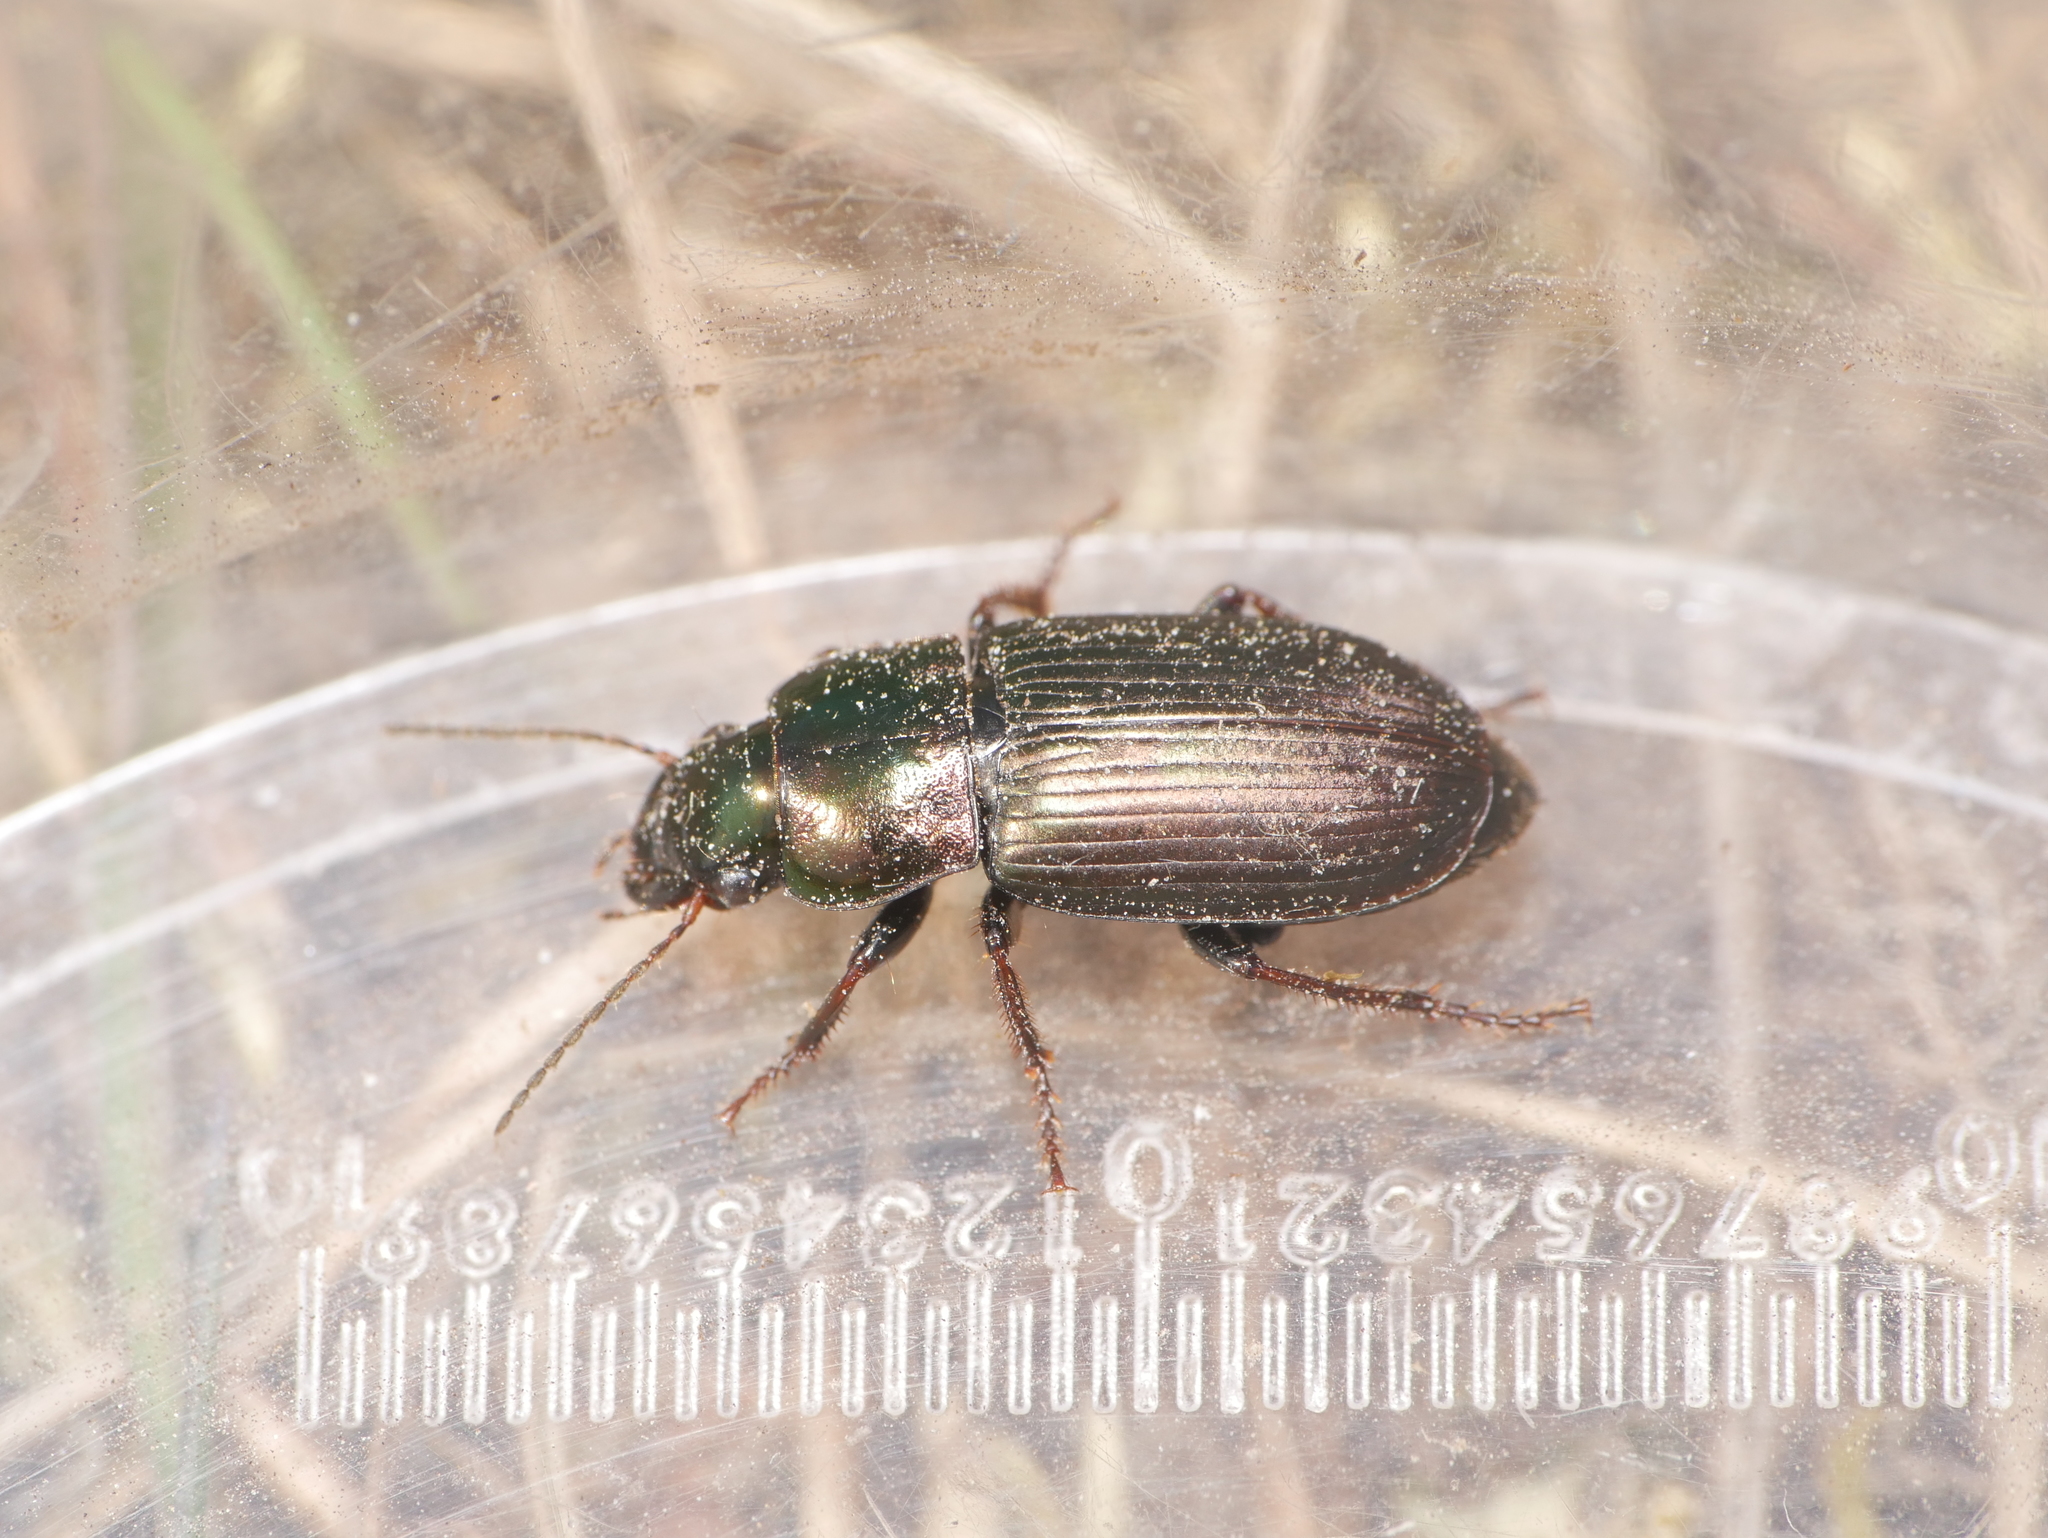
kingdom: Animalia
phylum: Arthropoda
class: Insecta
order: Coleoptera
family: Carabidae
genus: Harpalus
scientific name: Harpalus distinguendus
